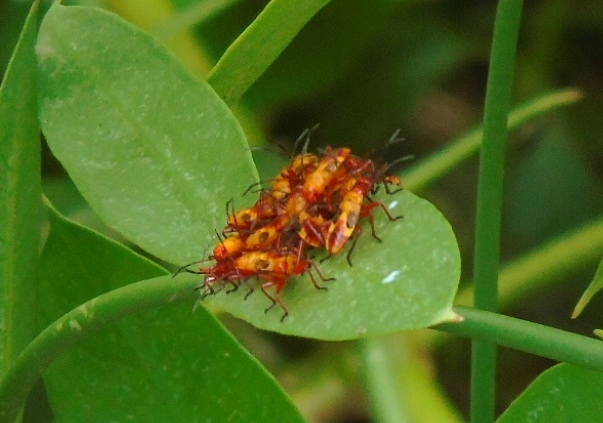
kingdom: Animalia
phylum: Arthropoda
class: Insecta
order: Hemiptera
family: Lygaeidae
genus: Oncopeltus
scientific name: Oncopeltus guttaloides
